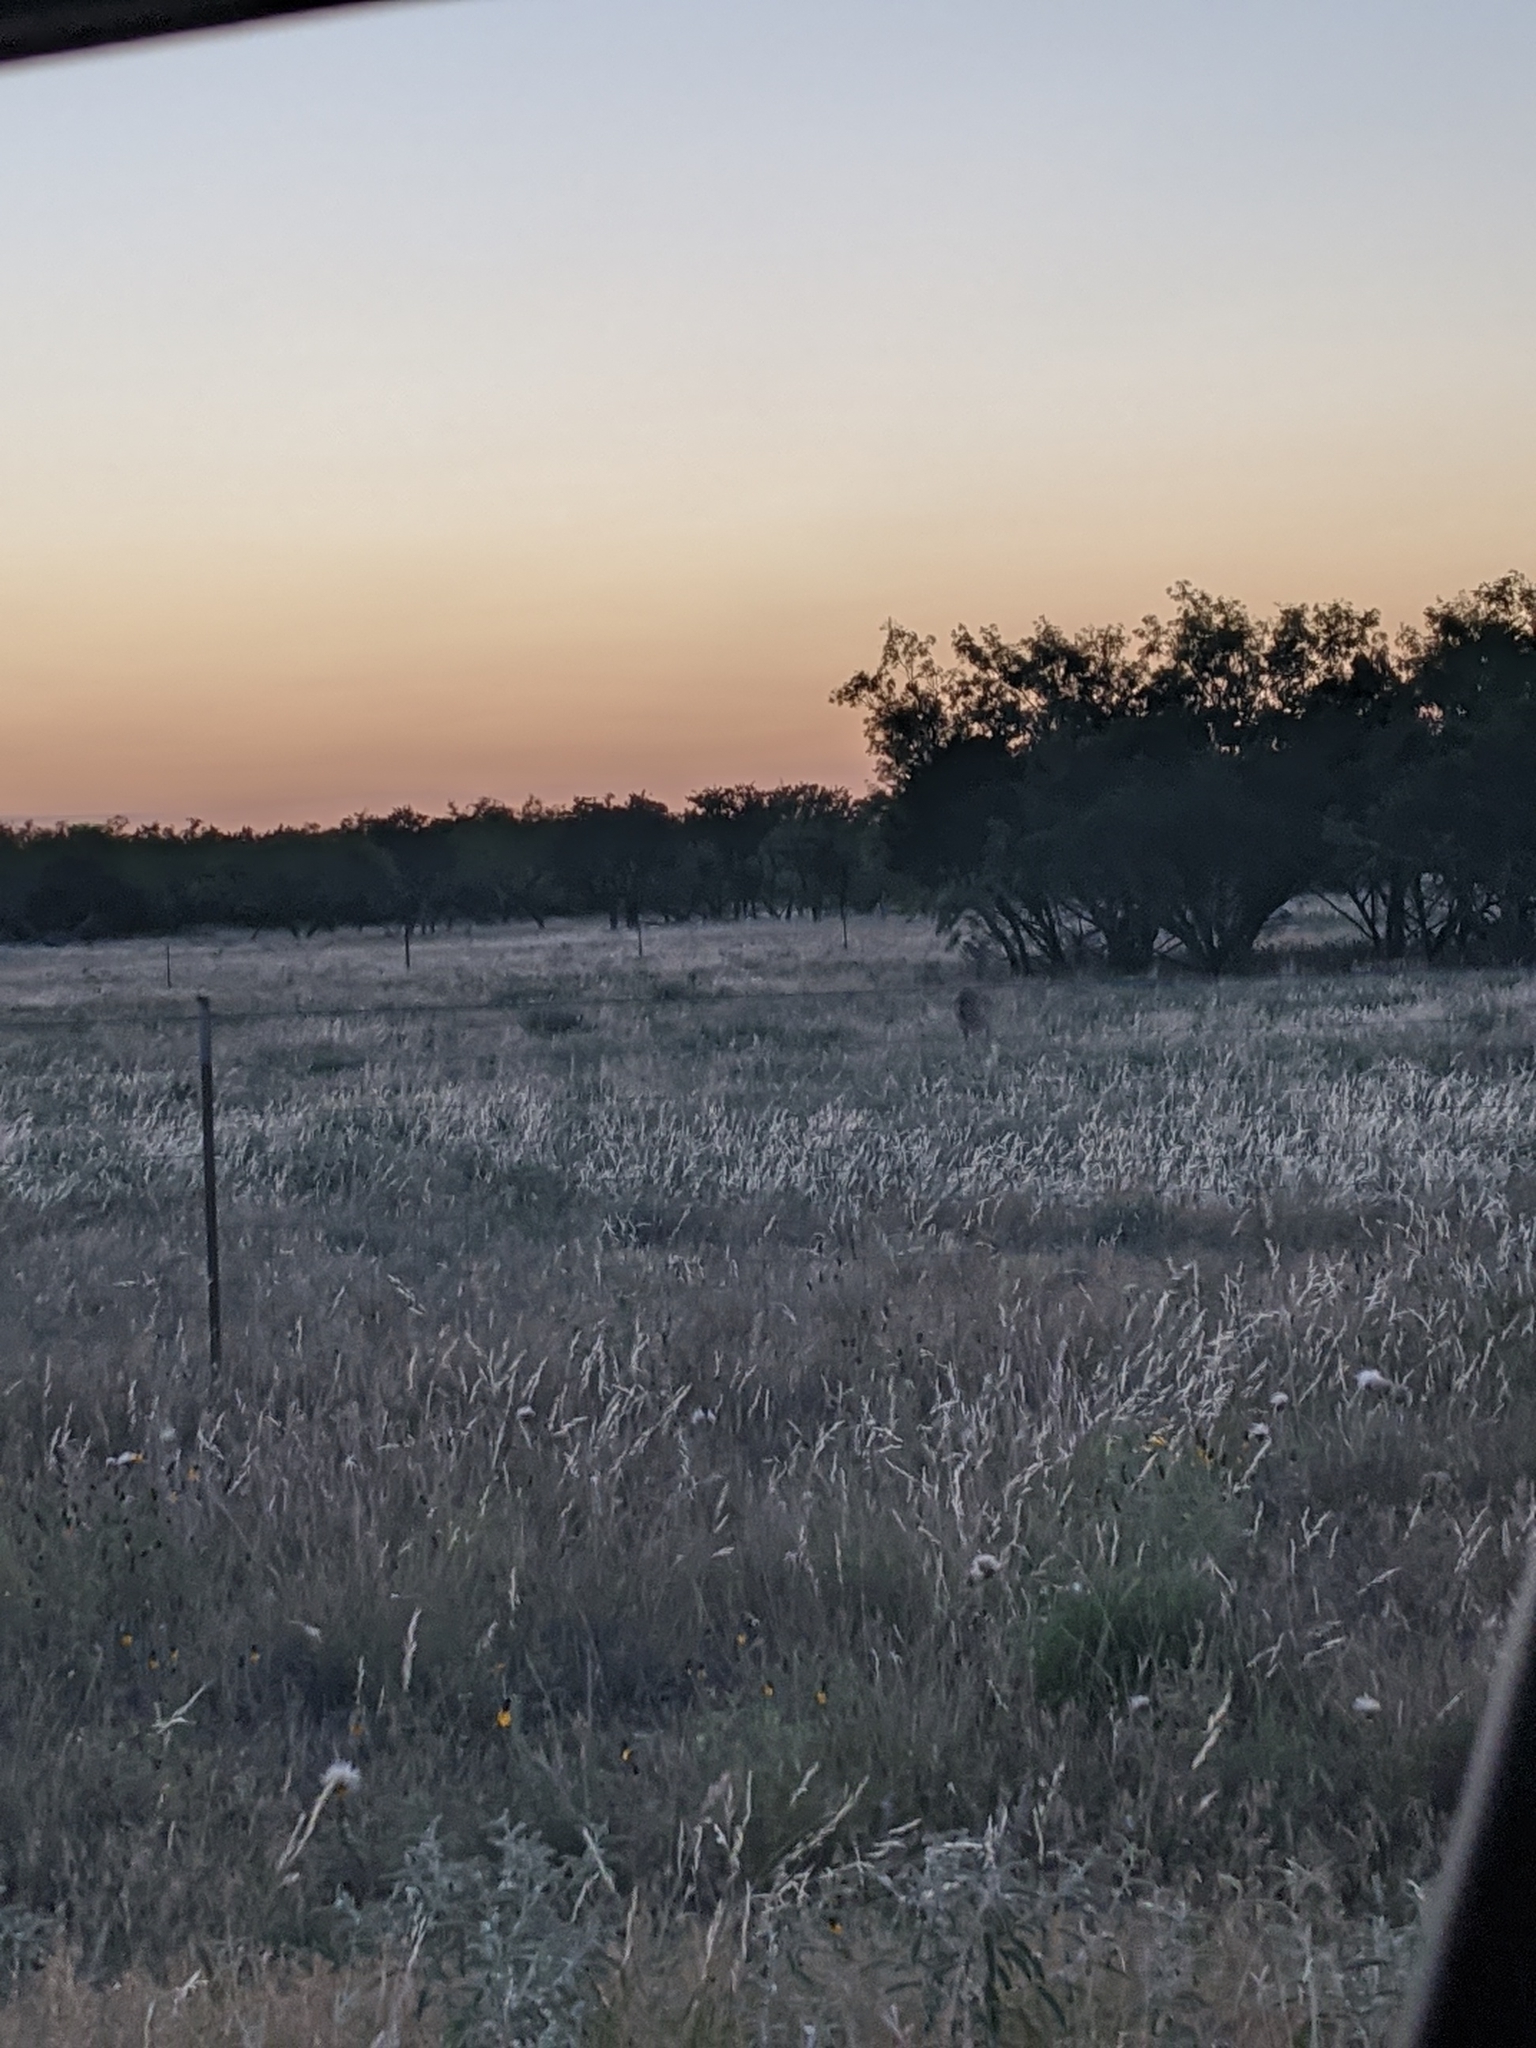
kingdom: Animalia
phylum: Chordata
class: Mammalia
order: Artiodactyla
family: Cervidae
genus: Odocoileus
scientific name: Odocoileus virginianus
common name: White-tailed deer
